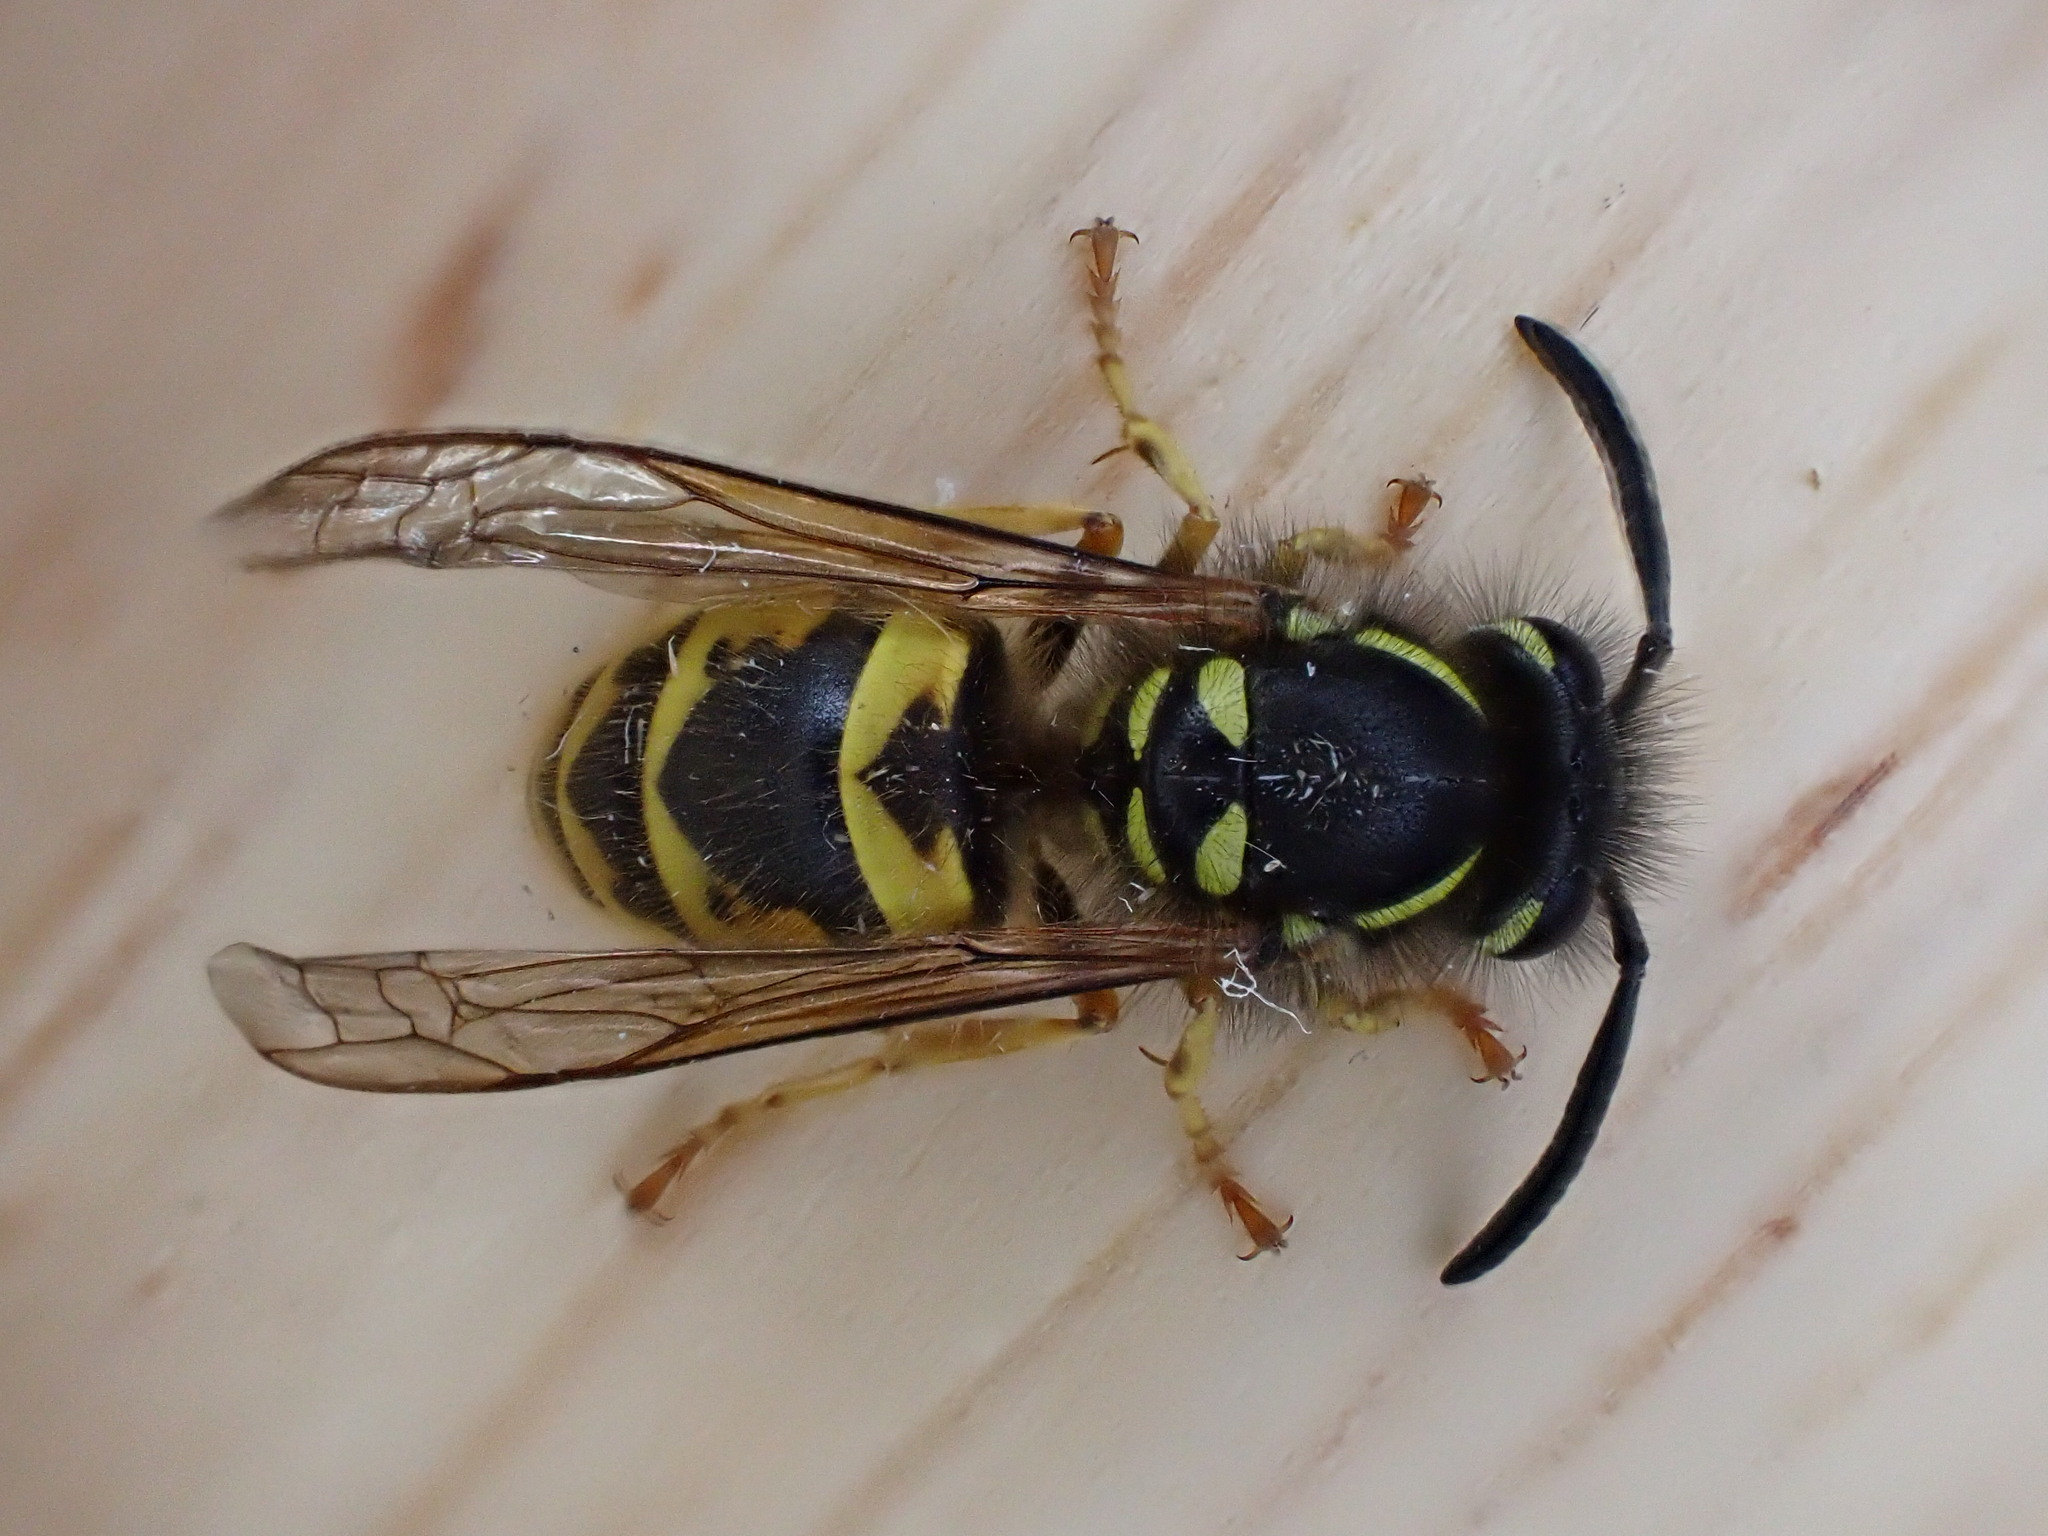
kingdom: Animalia
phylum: Arthropoda
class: Insecta
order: Hymenoptera
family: Vespidae
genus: Vespula
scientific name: Vespula vulgaris
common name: Common wasp
